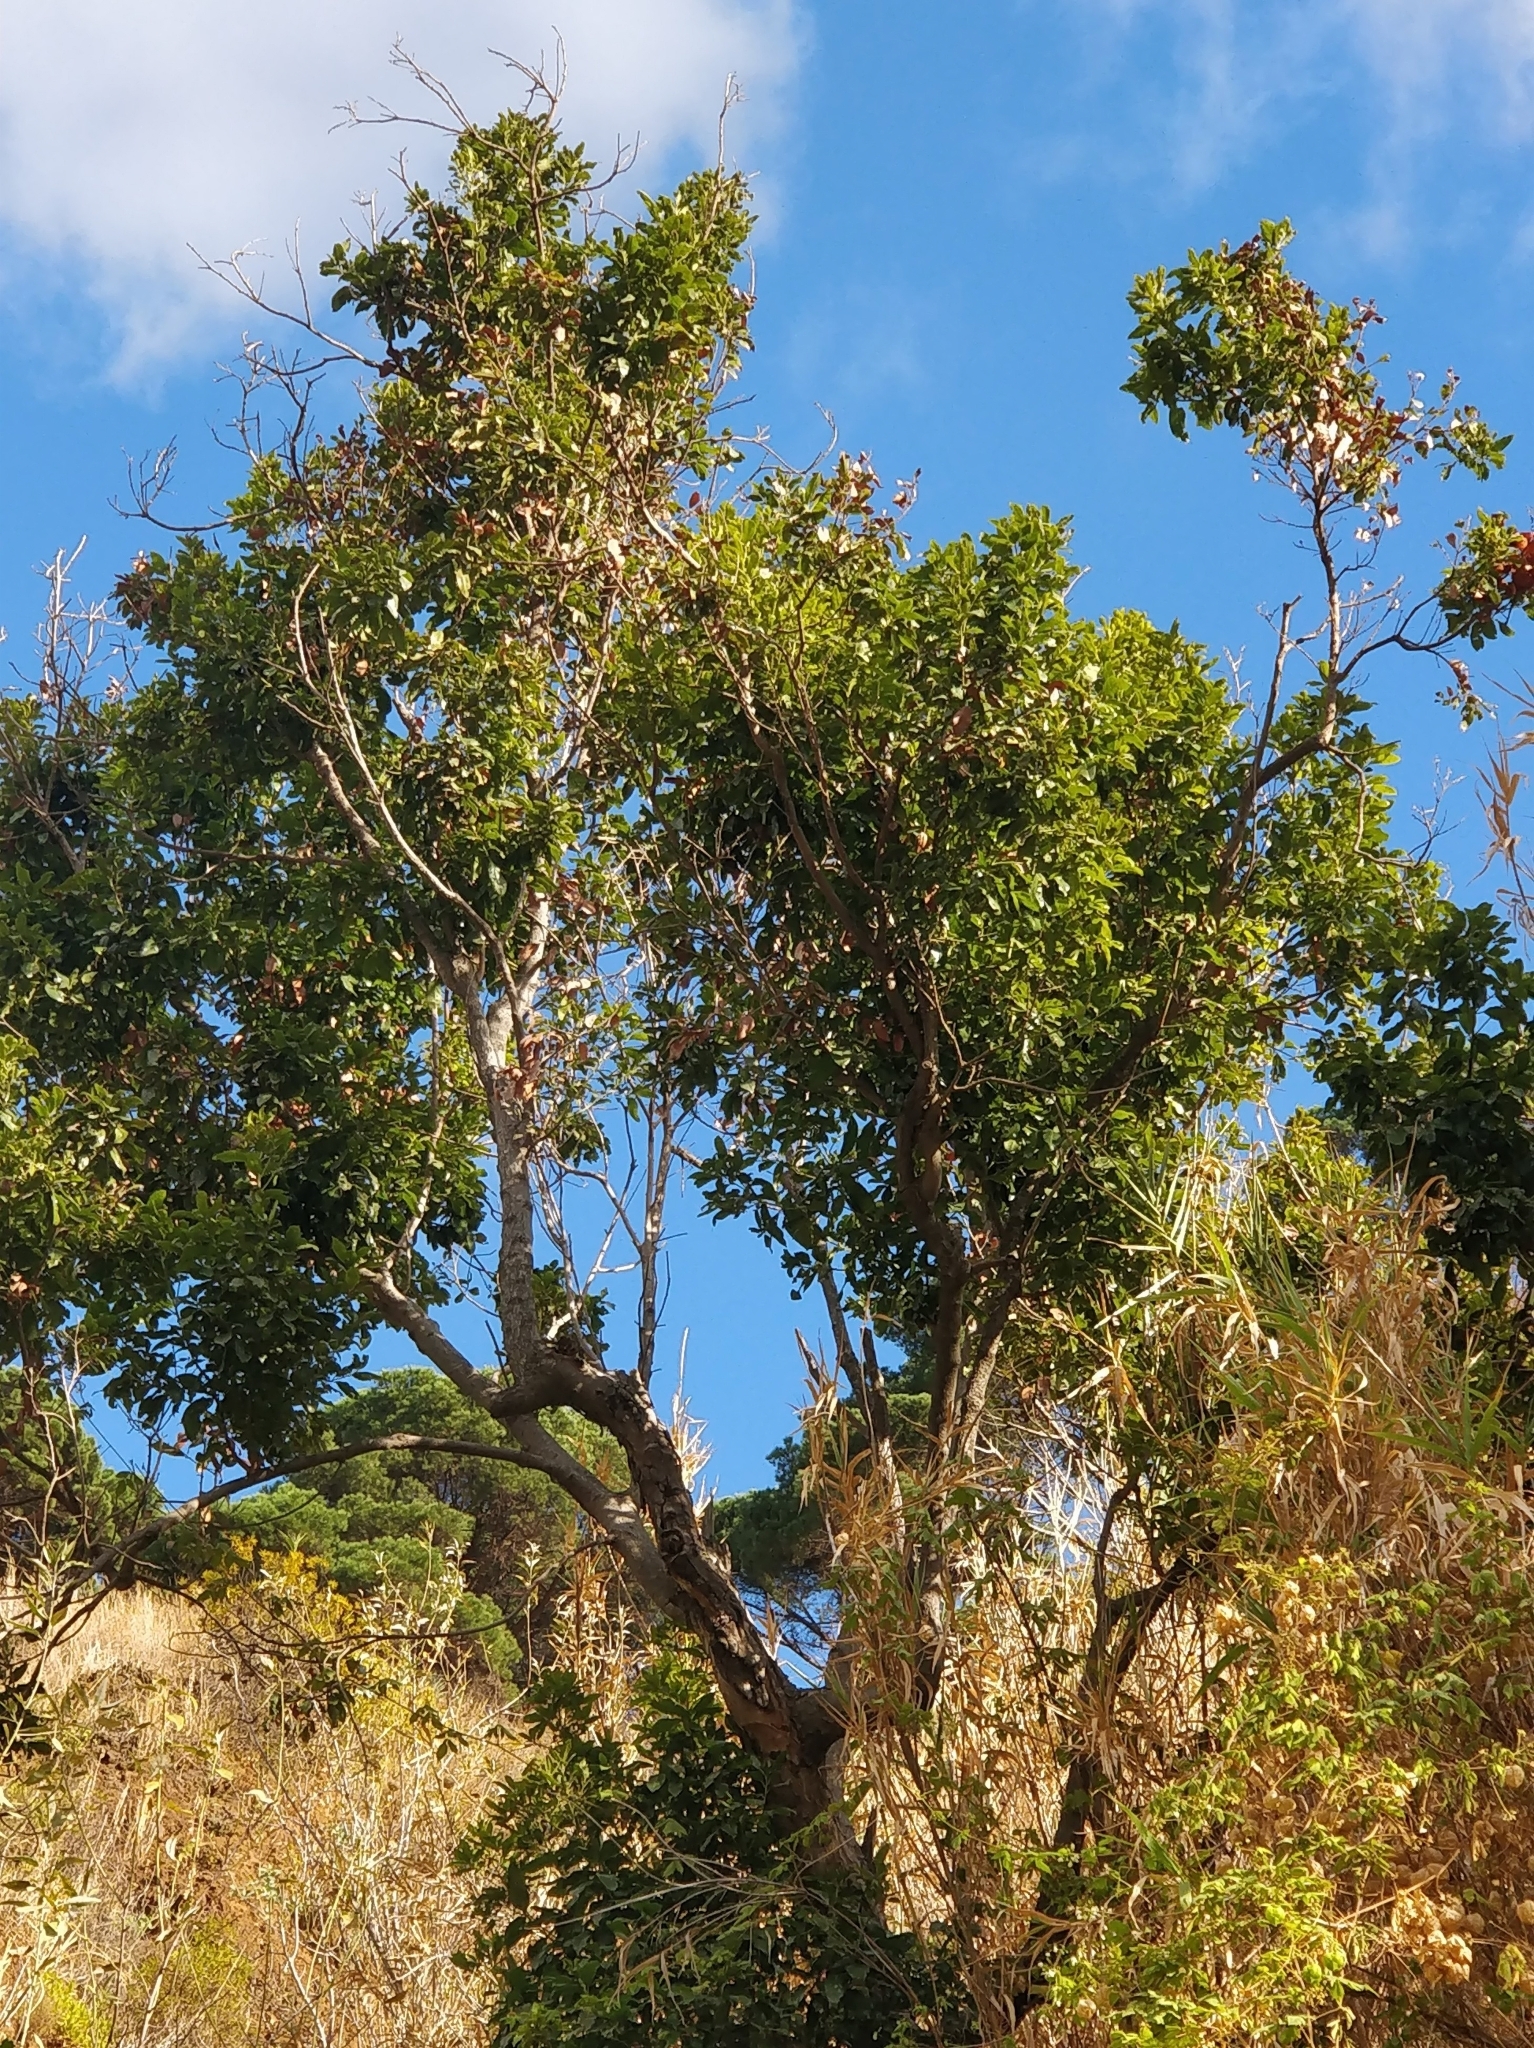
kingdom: Plantae
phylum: Tracheophyta
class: Magnoliopsida
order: Laurales
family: Lauraceae
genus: Apollonias
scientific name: Apollonias barbujana
